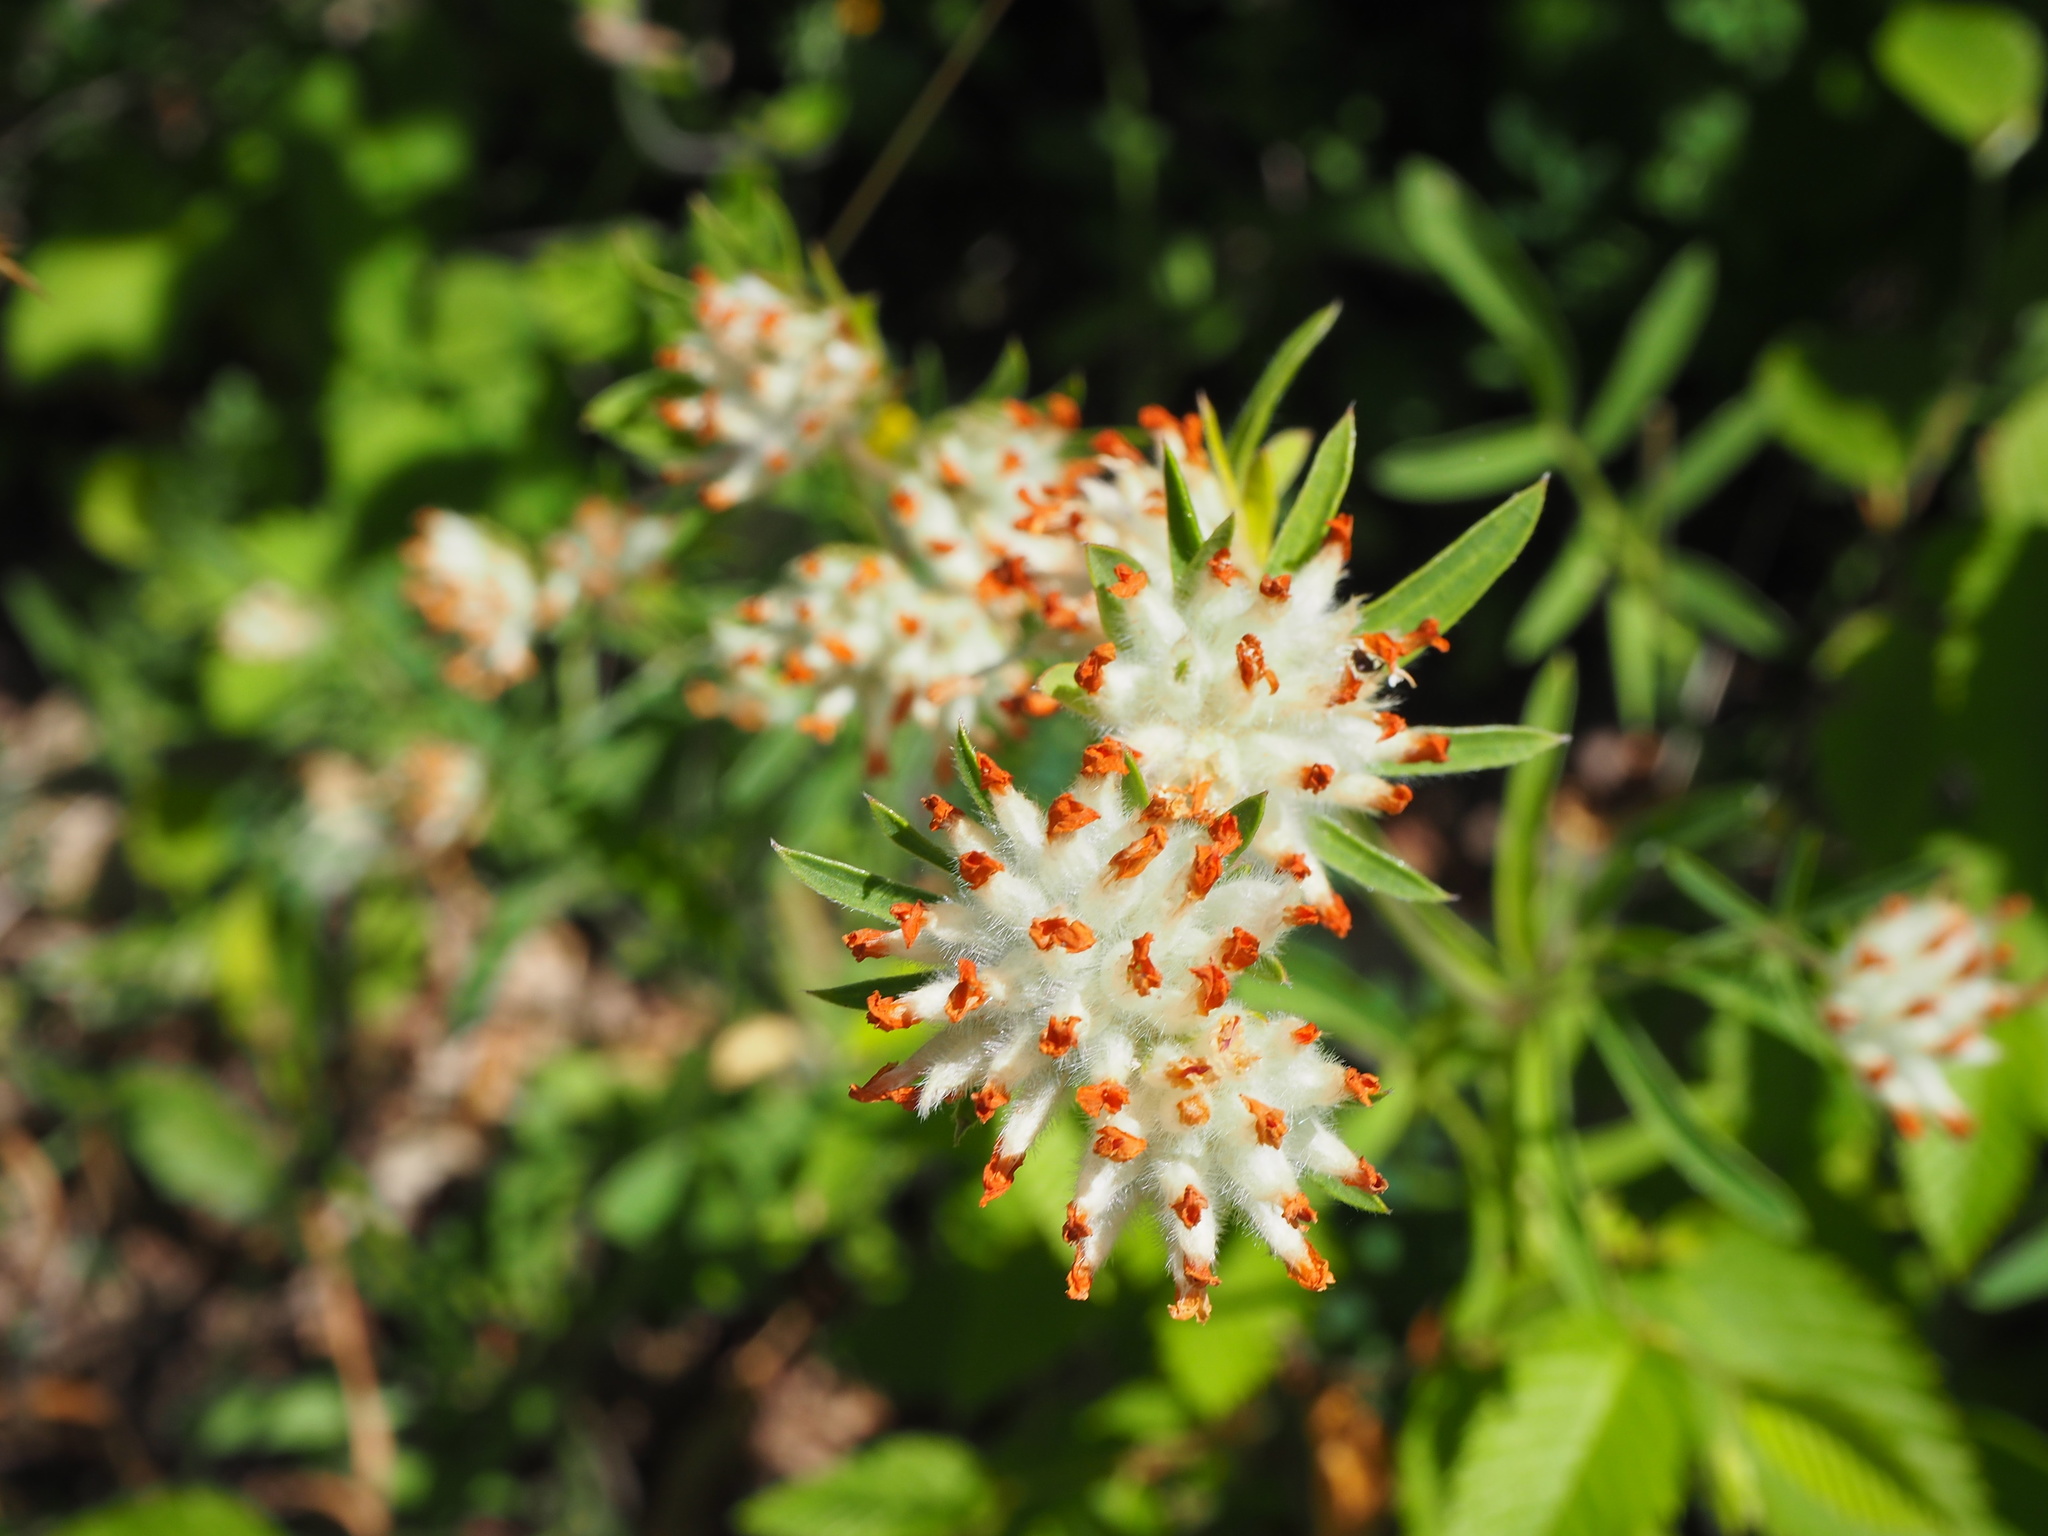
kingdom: Plantae
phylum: Tracheophyta
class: Magnoliopsida
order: Fabales
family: Fabaceae
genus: Anthyllis
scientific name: Anthyllis vulneraria
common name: Kidney vetch
